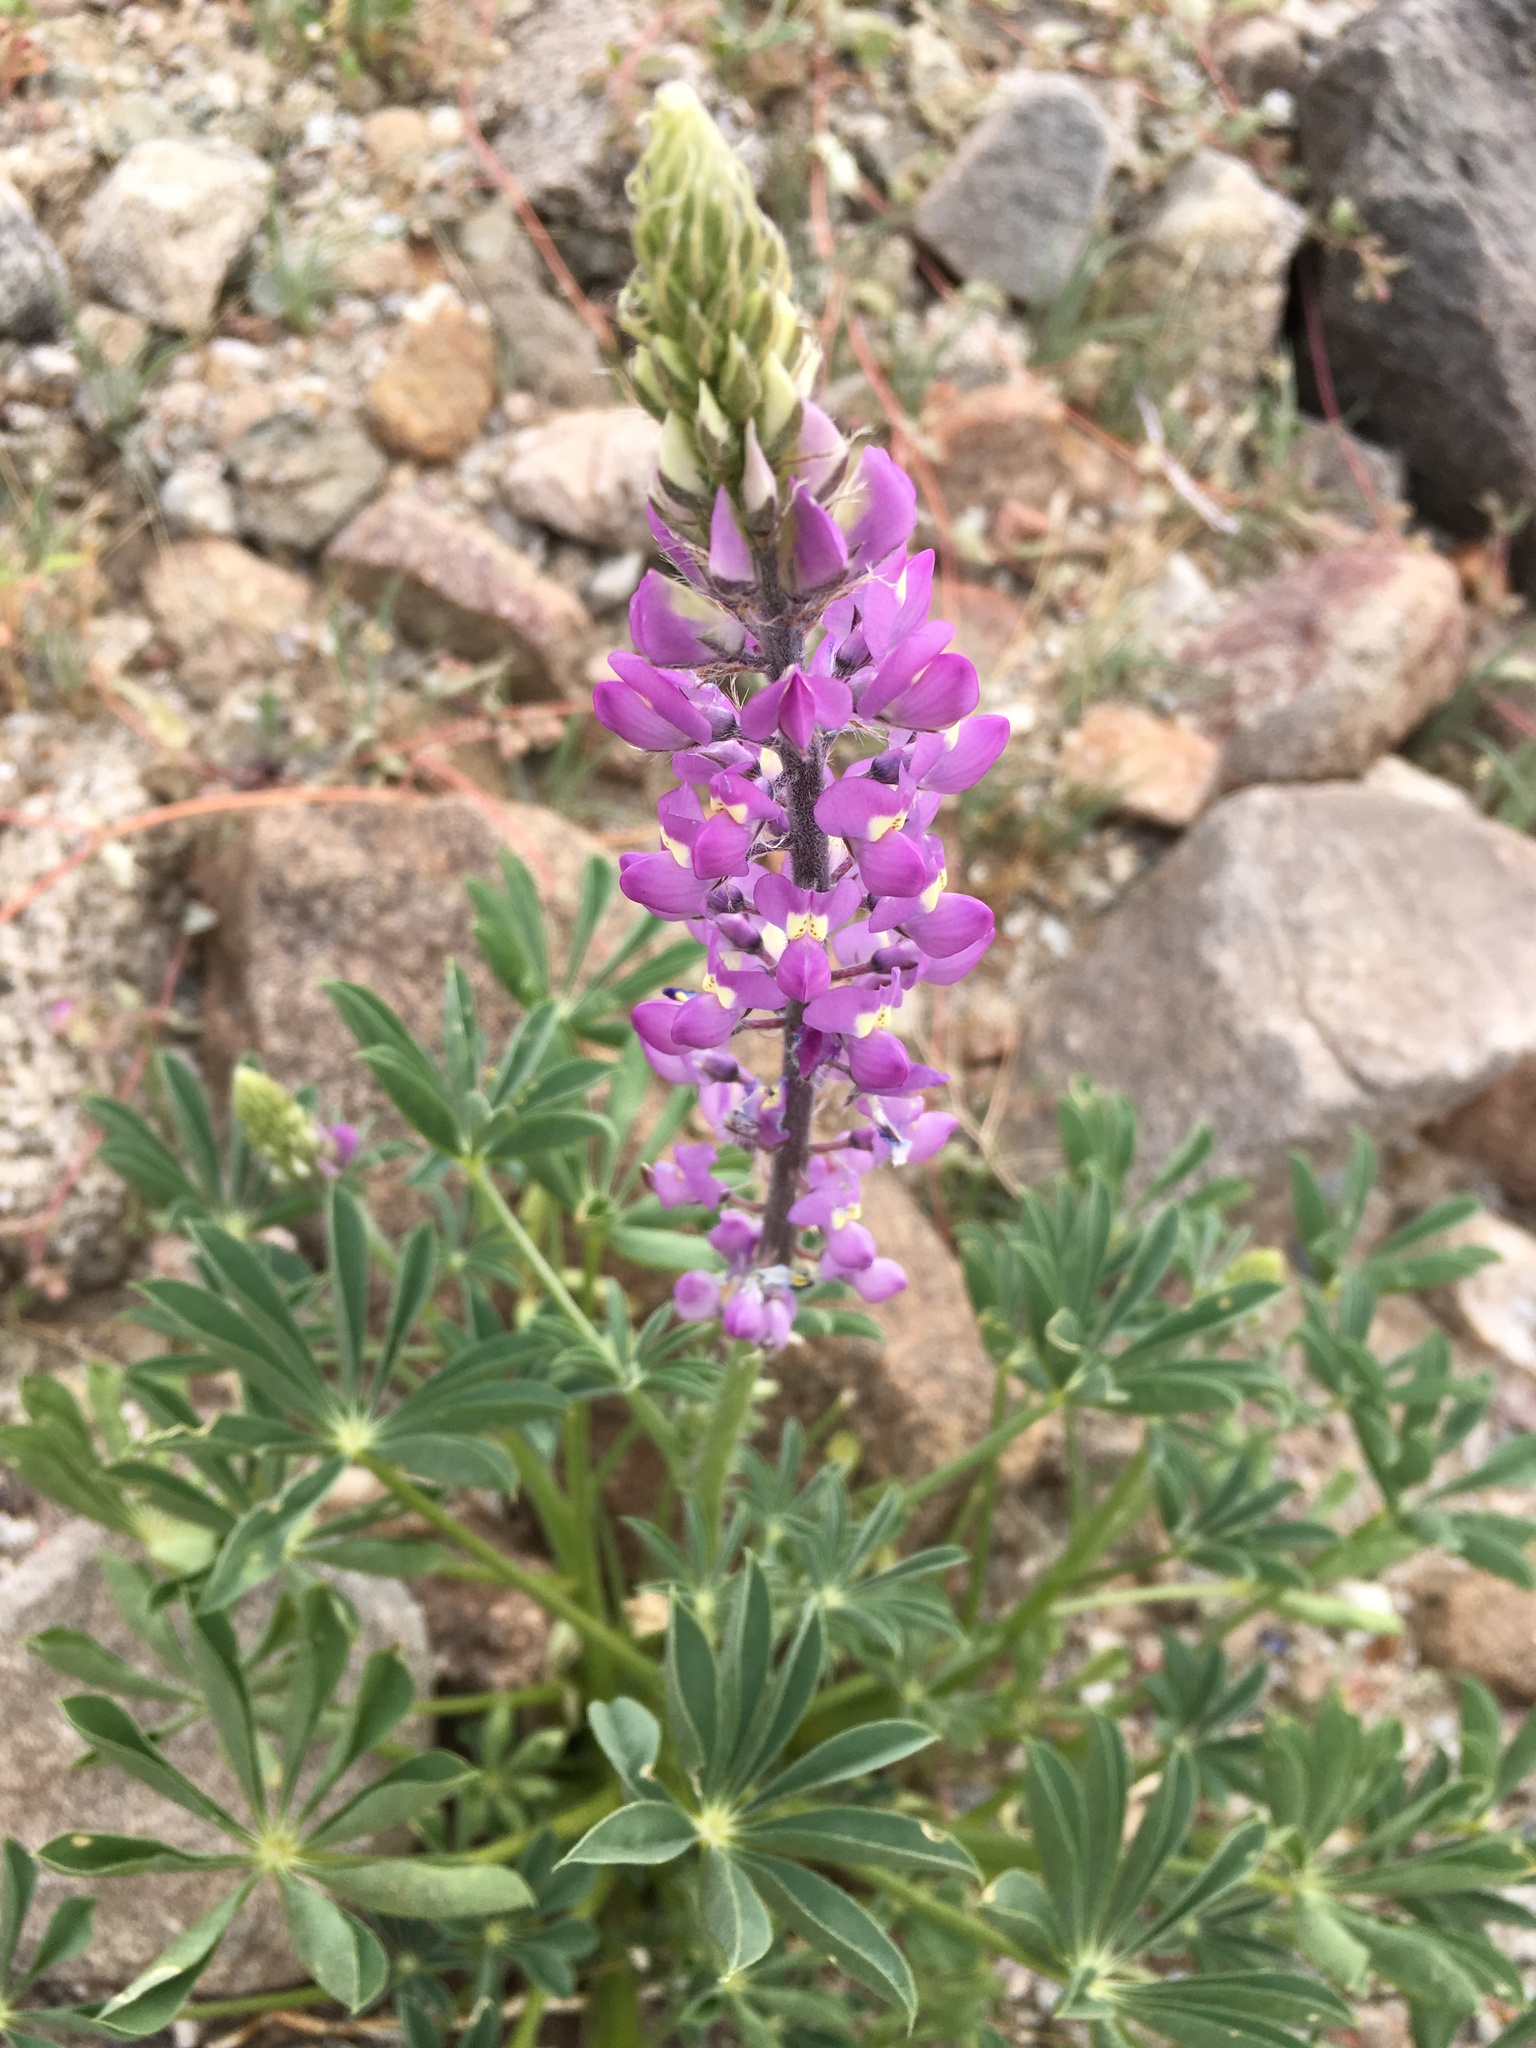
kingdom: Plantae
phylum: Tracheophyta
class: Magnoliopsida
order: Fabales
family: Fabaceae
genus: Lupinus
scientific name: Lupinus arizonicus
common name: Arizona lupine
